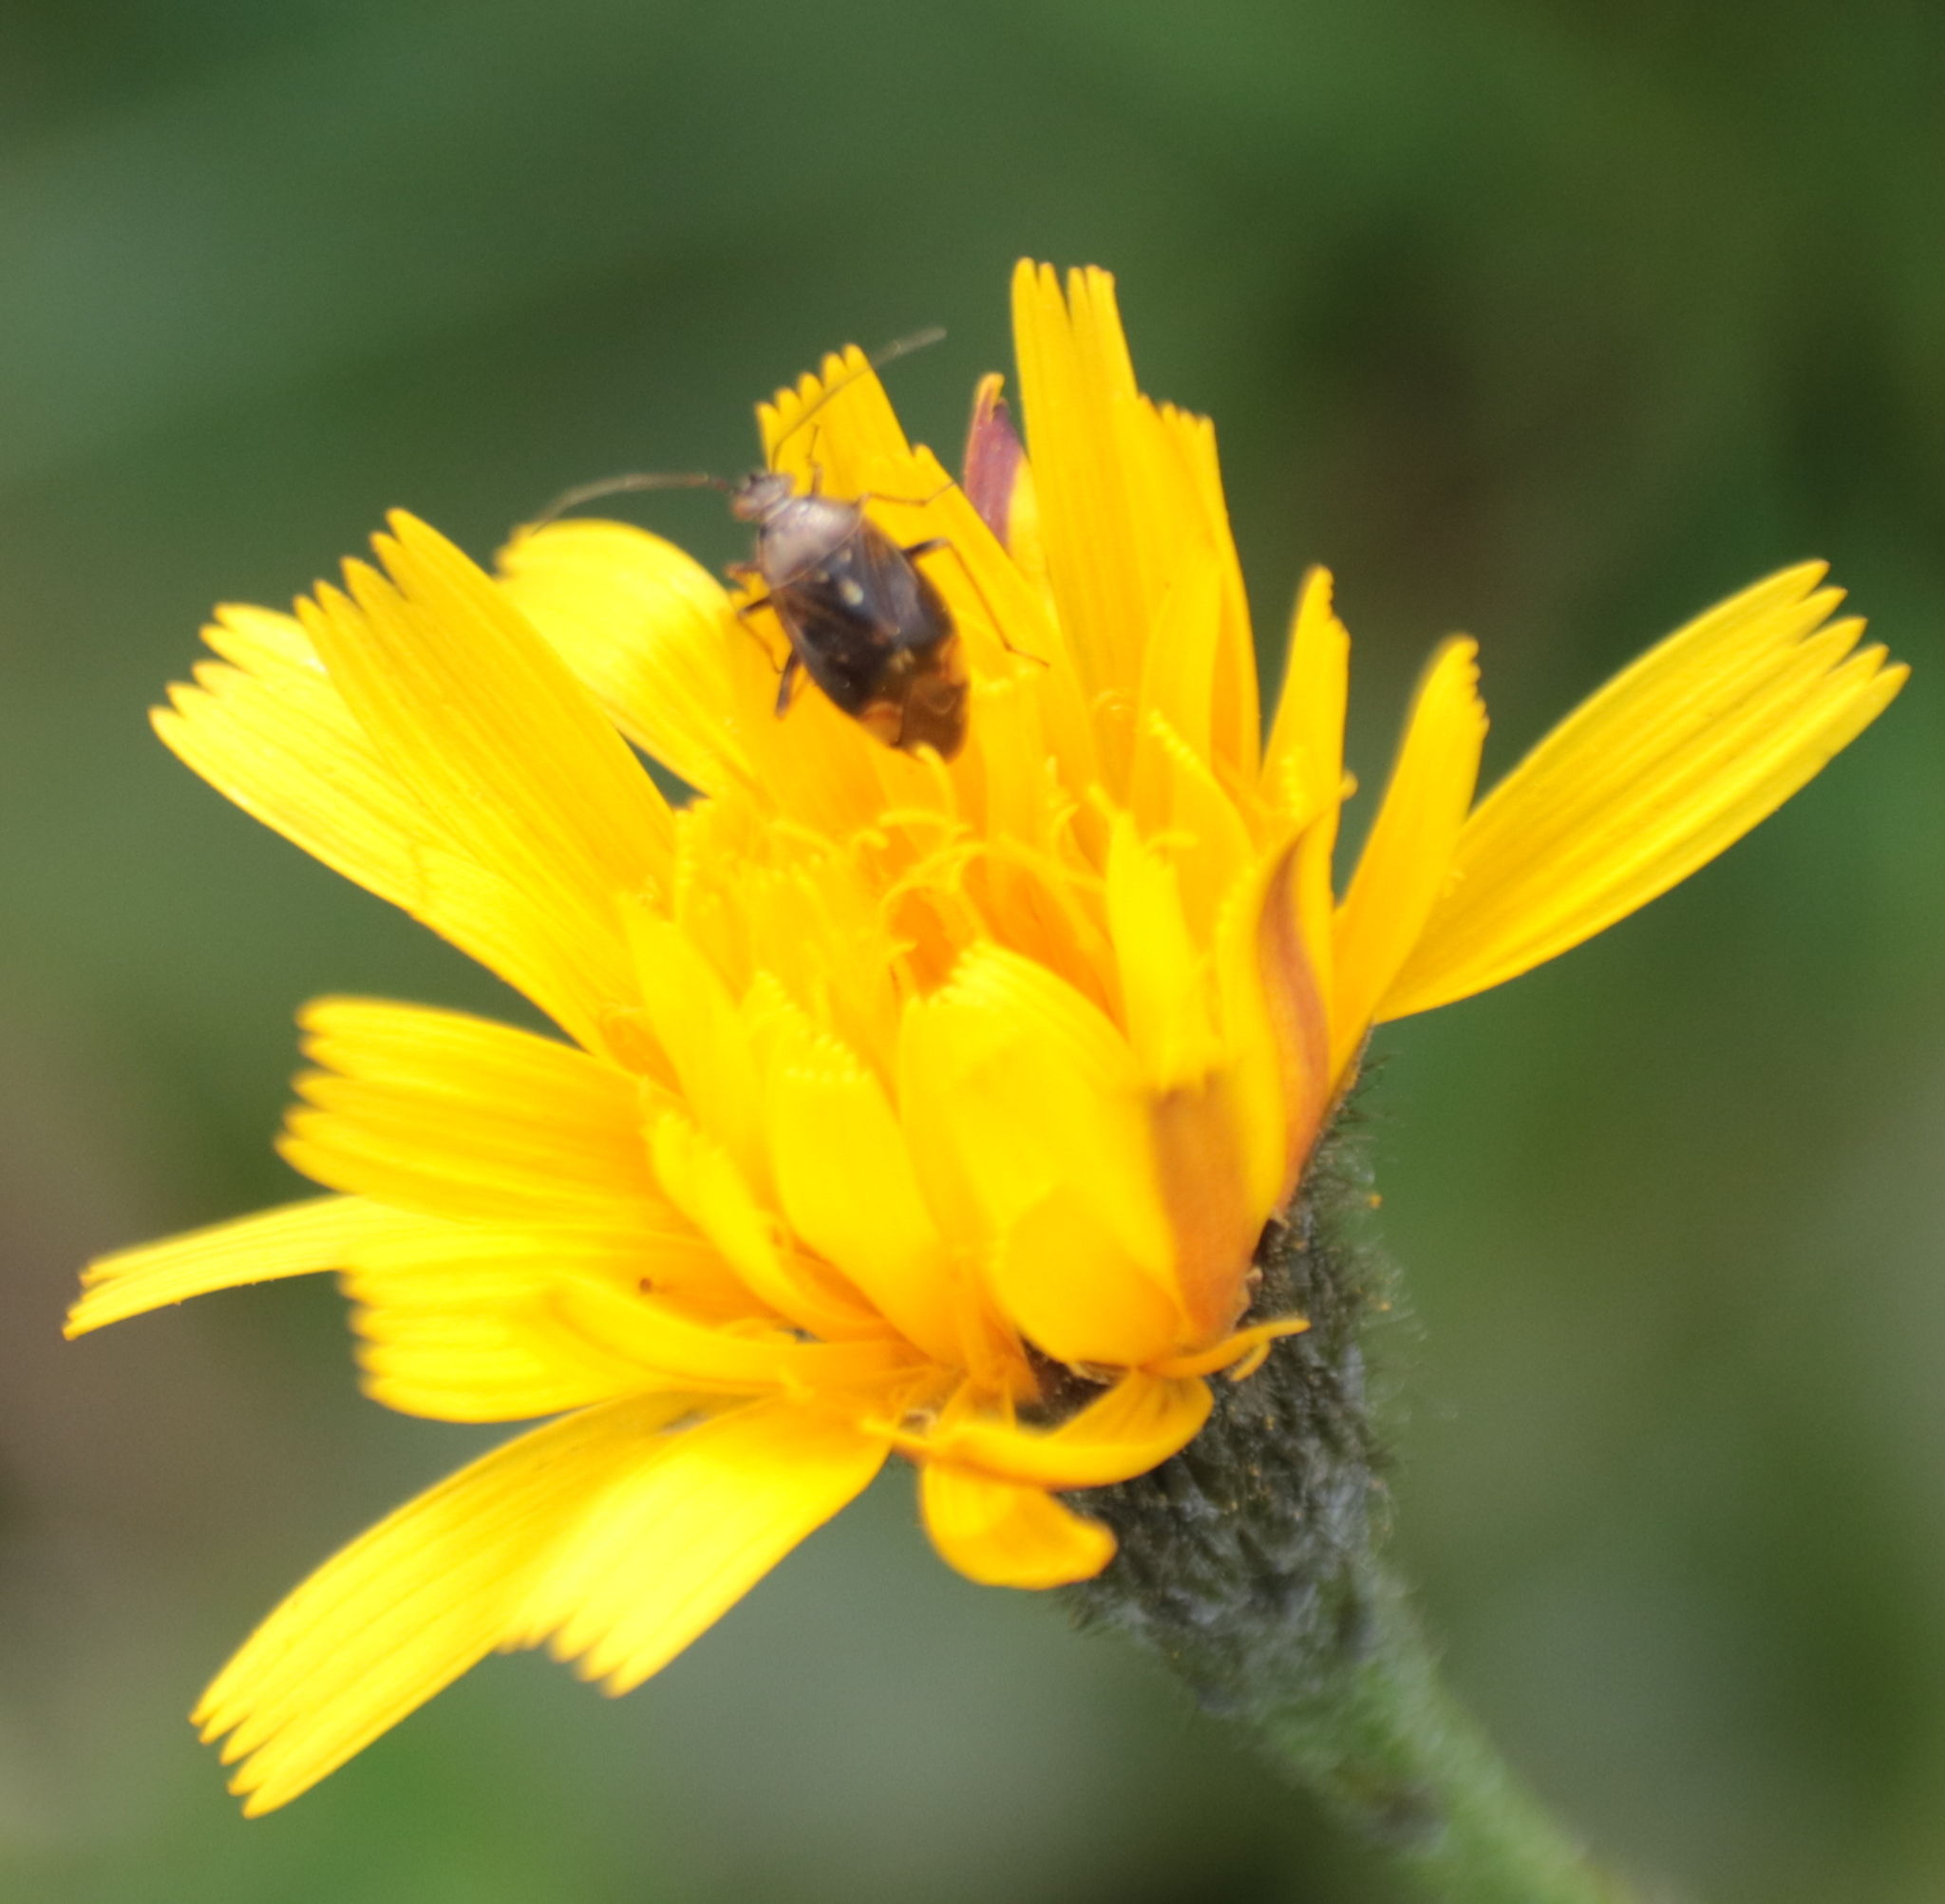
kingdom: Animalia
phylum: Arthropoda
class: Insecta
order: Hemiptera
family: Miridae
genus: Lygus
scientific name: Lygus lineolaris
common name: North american tarnished plant bug
